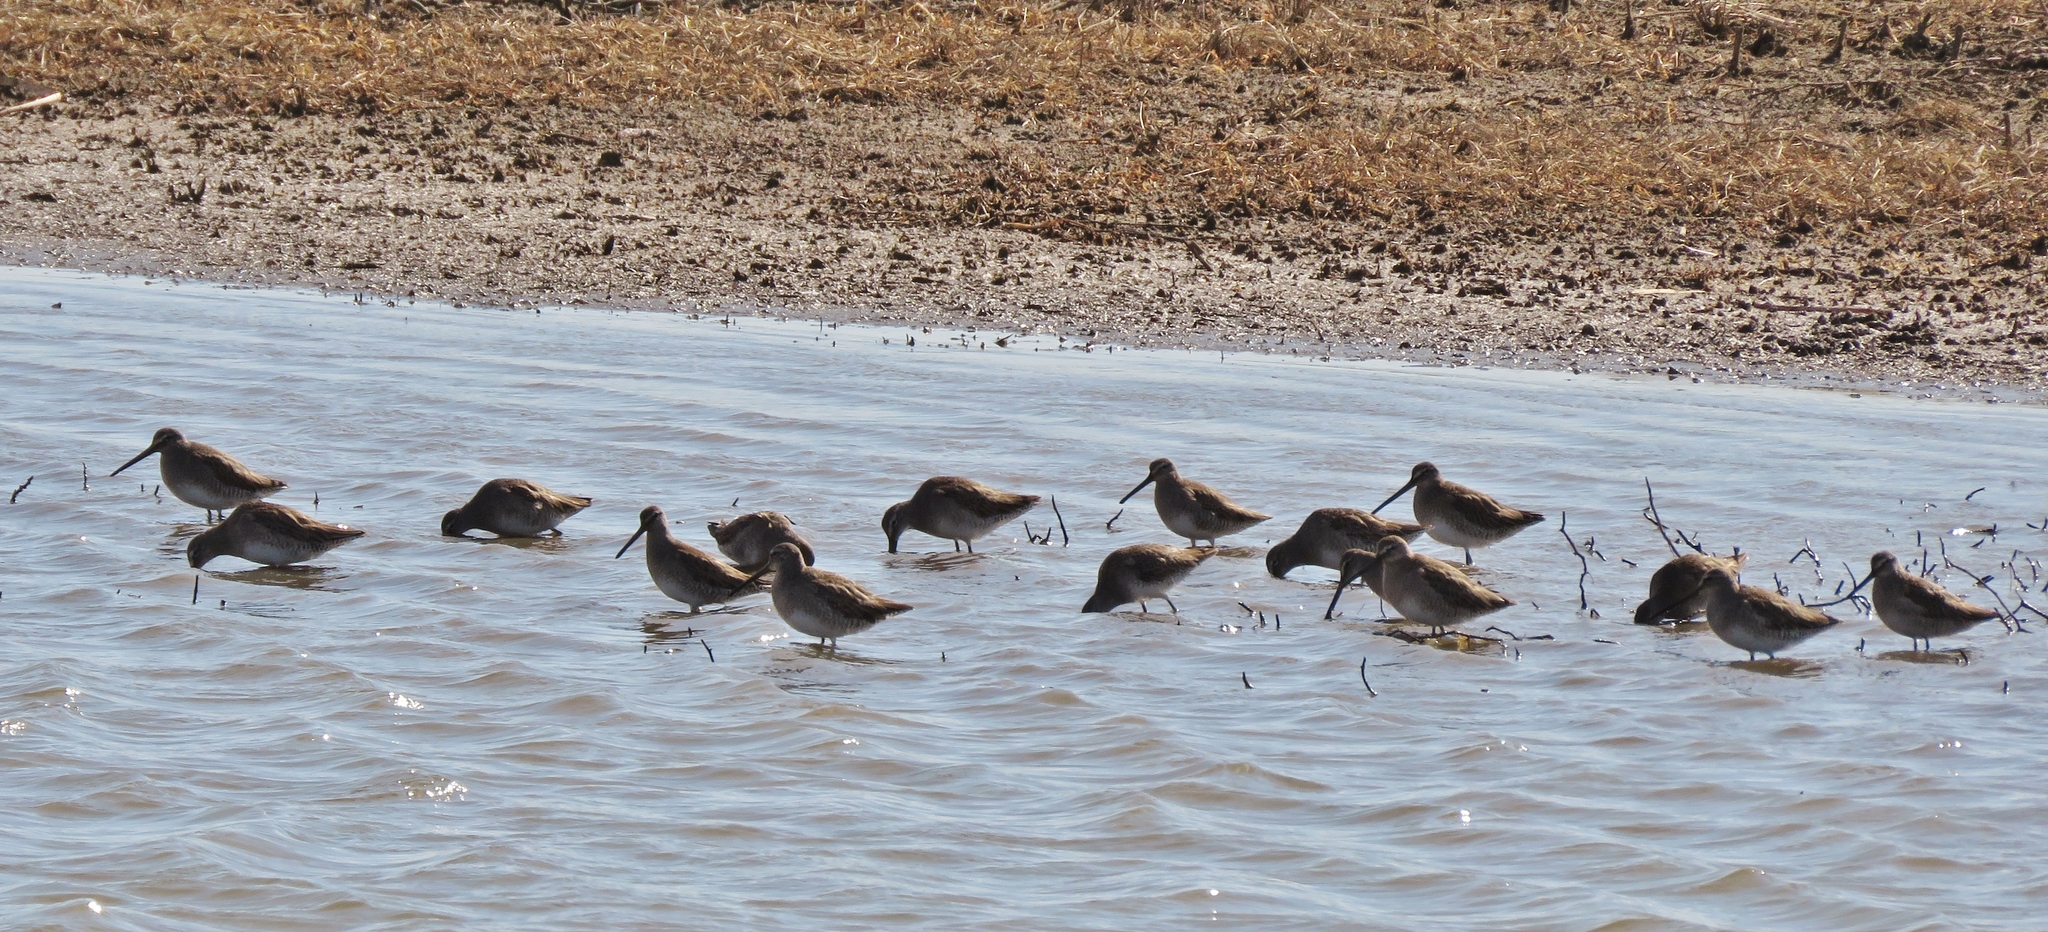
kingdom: Animalia
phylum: Chordata
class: Aves
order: Charadriiformes
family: Scolopacidae
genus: Limnodromus
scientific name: Limnodromus scolopaceus
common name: Long-billed dowitcher
